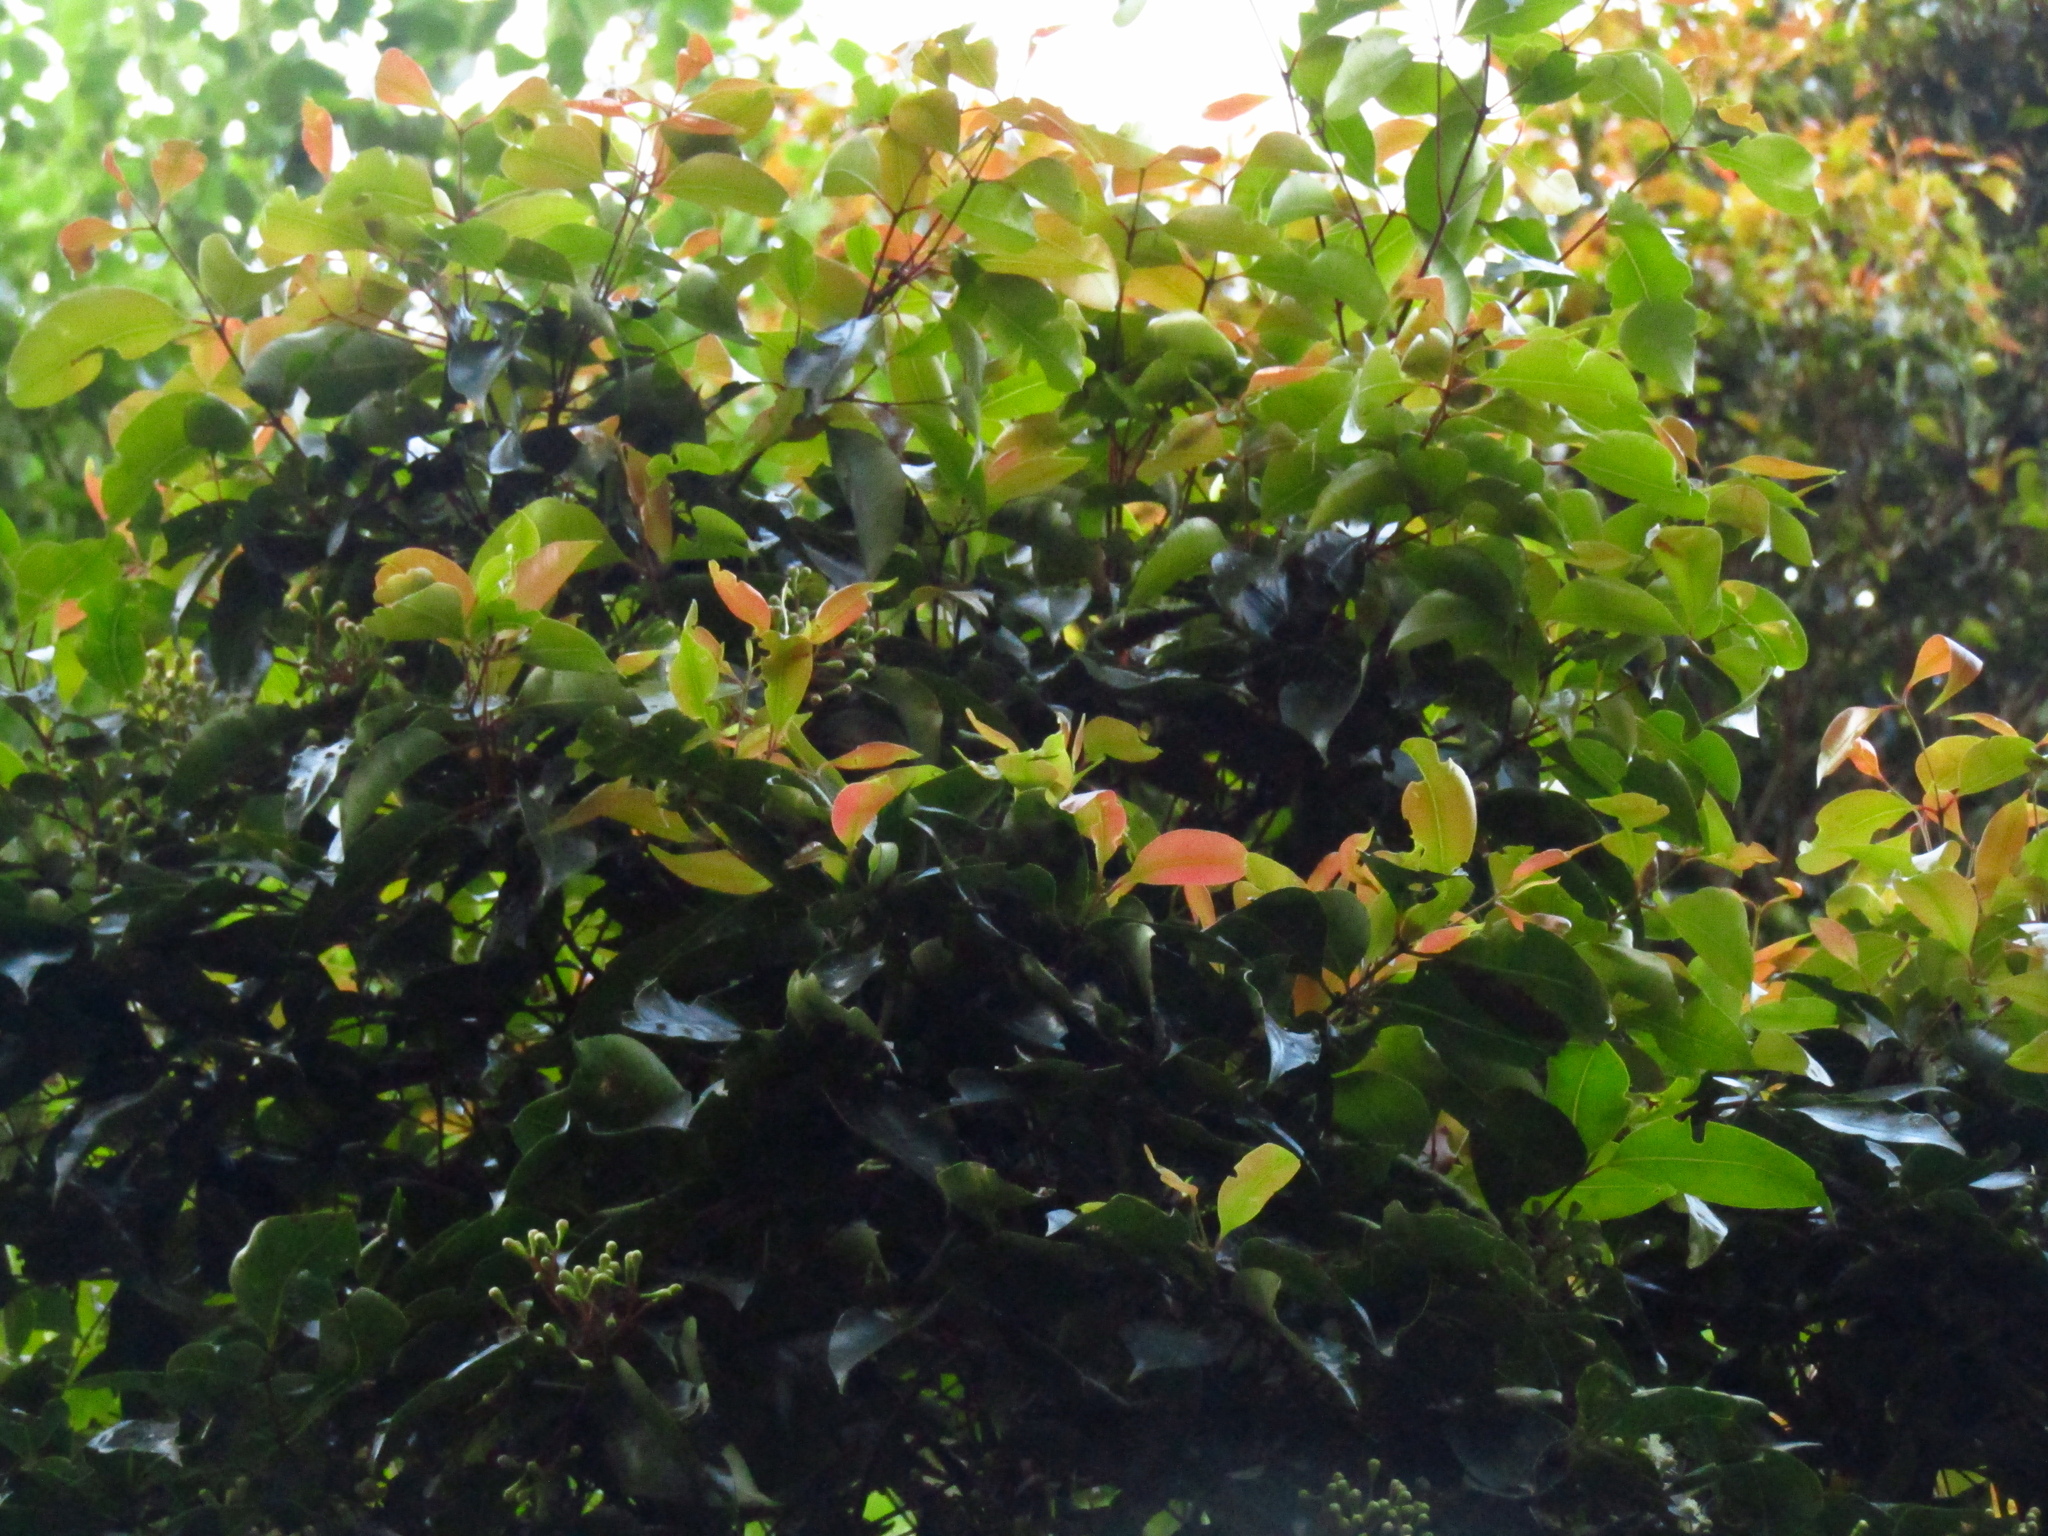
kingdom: Plantae
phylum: Tracheophyta
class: Magnoliopsida
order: Myrtales
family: Myrtaceae
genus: Syzygium
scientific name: Syzygium crebrinerve
